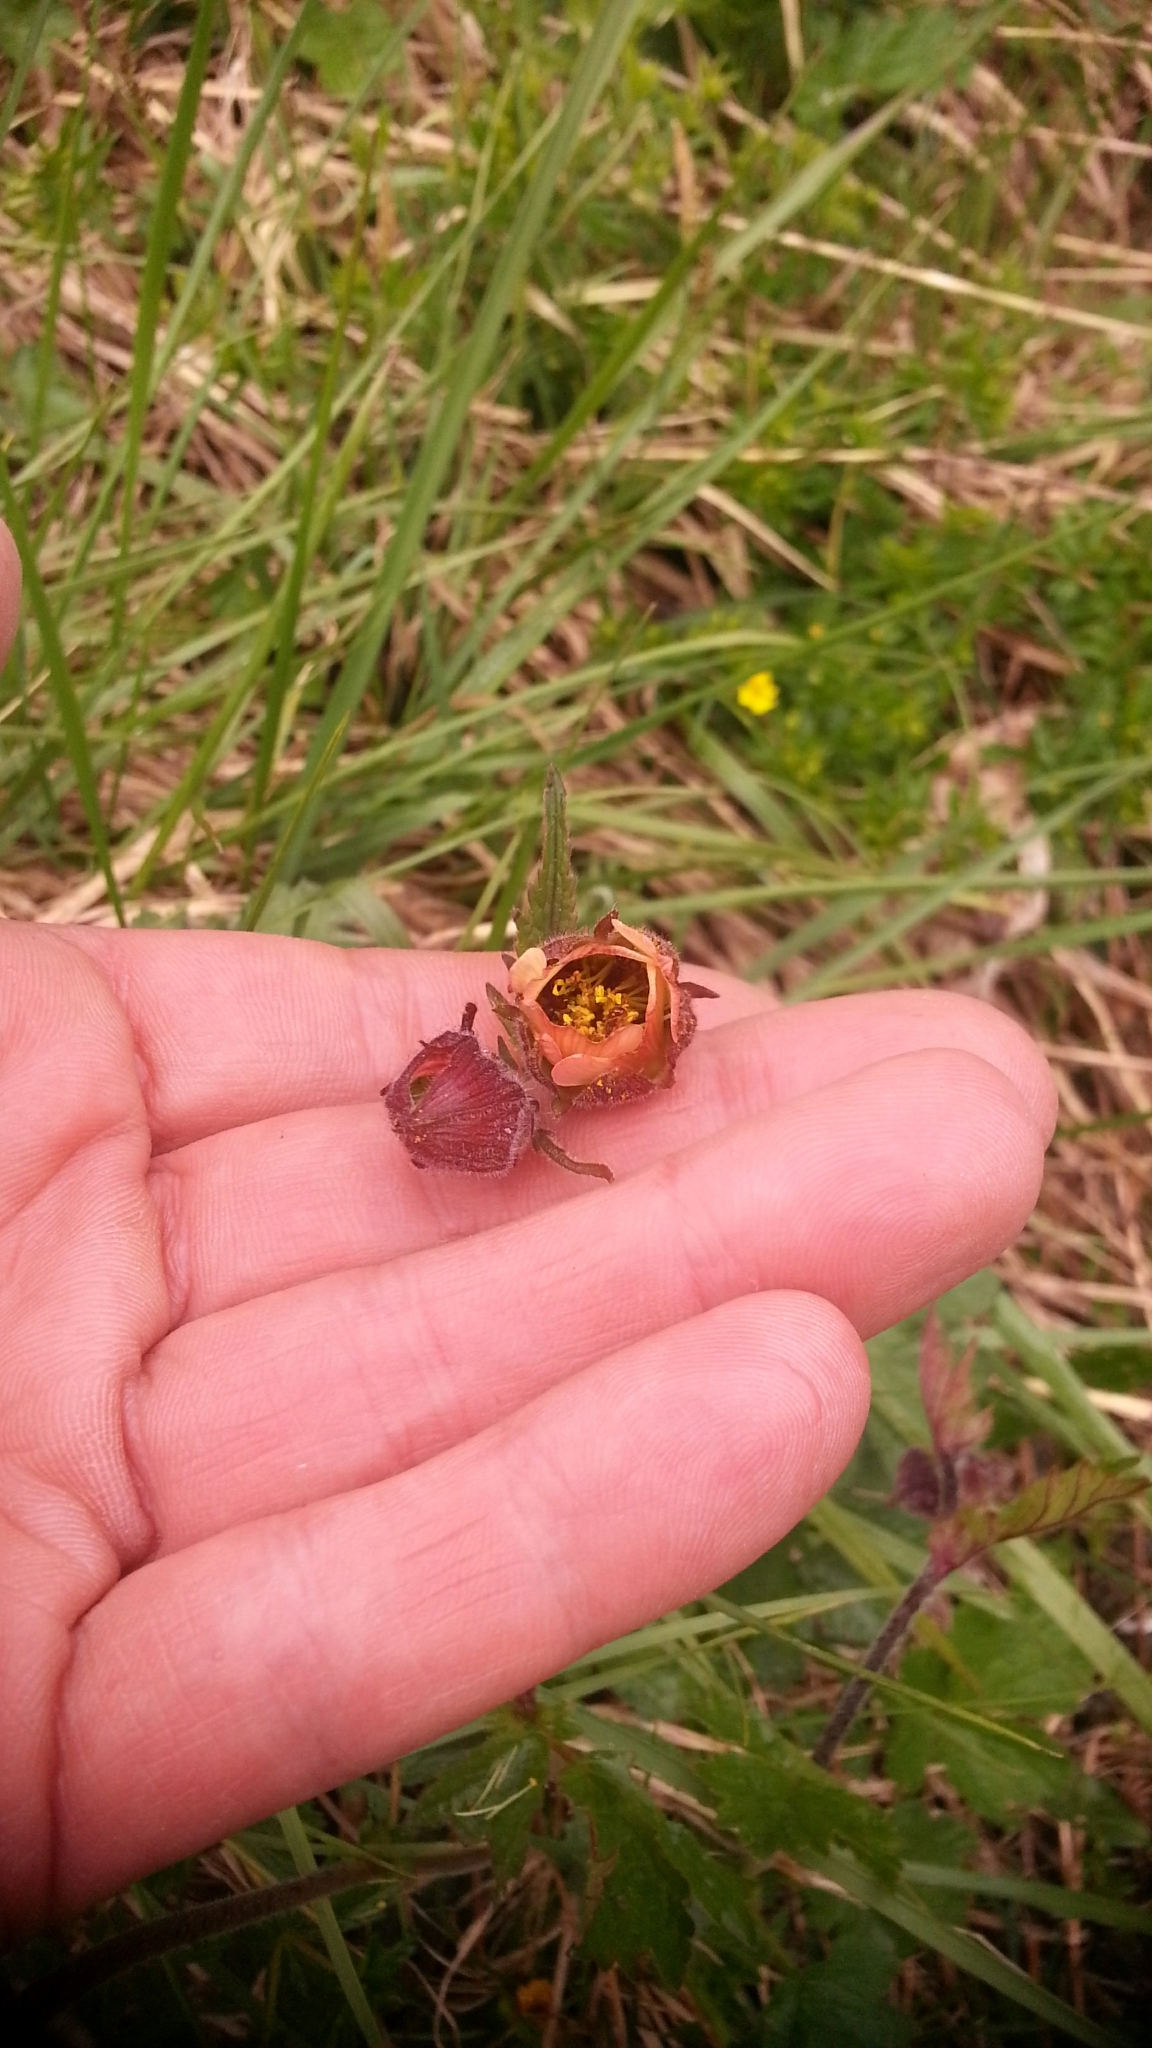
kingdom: Plantae
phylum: Tracheophyta
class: Magnoliopsida
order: Rosales
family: Rosaceae
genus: Geum
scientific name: Geum rivale
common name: Water avens
